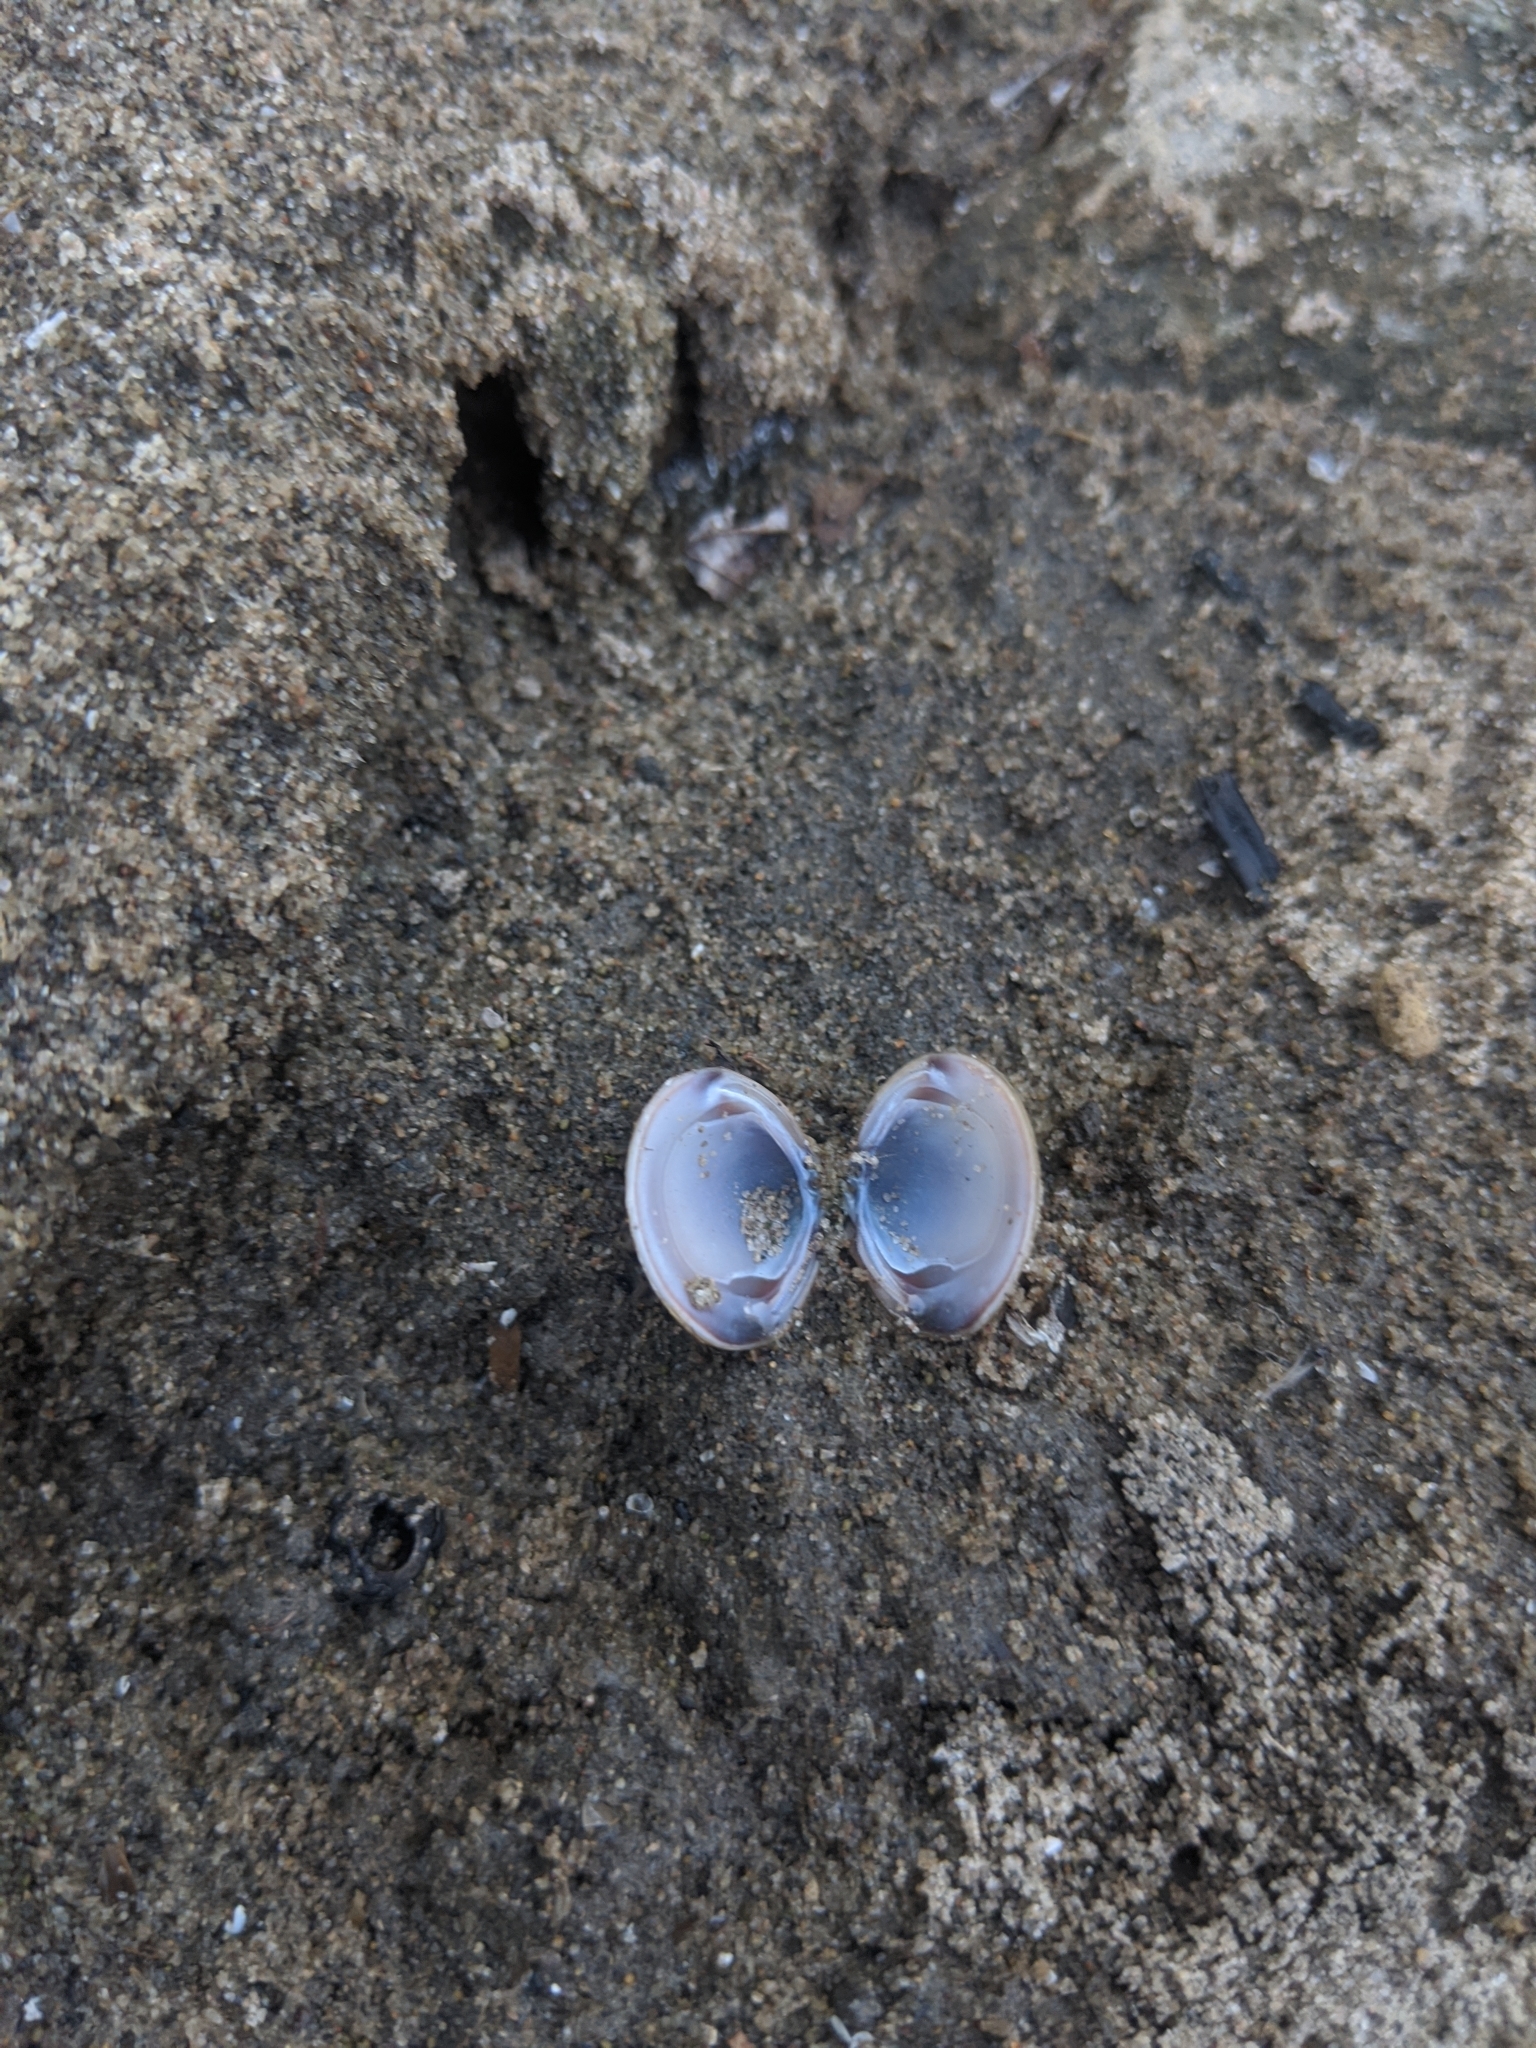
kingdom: Animalia
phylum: Mollusca
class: Bivalvia
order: Venerida
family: Cyrenidae
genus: Corbicula
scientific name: Corbicula fluminea
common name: Asian clam
